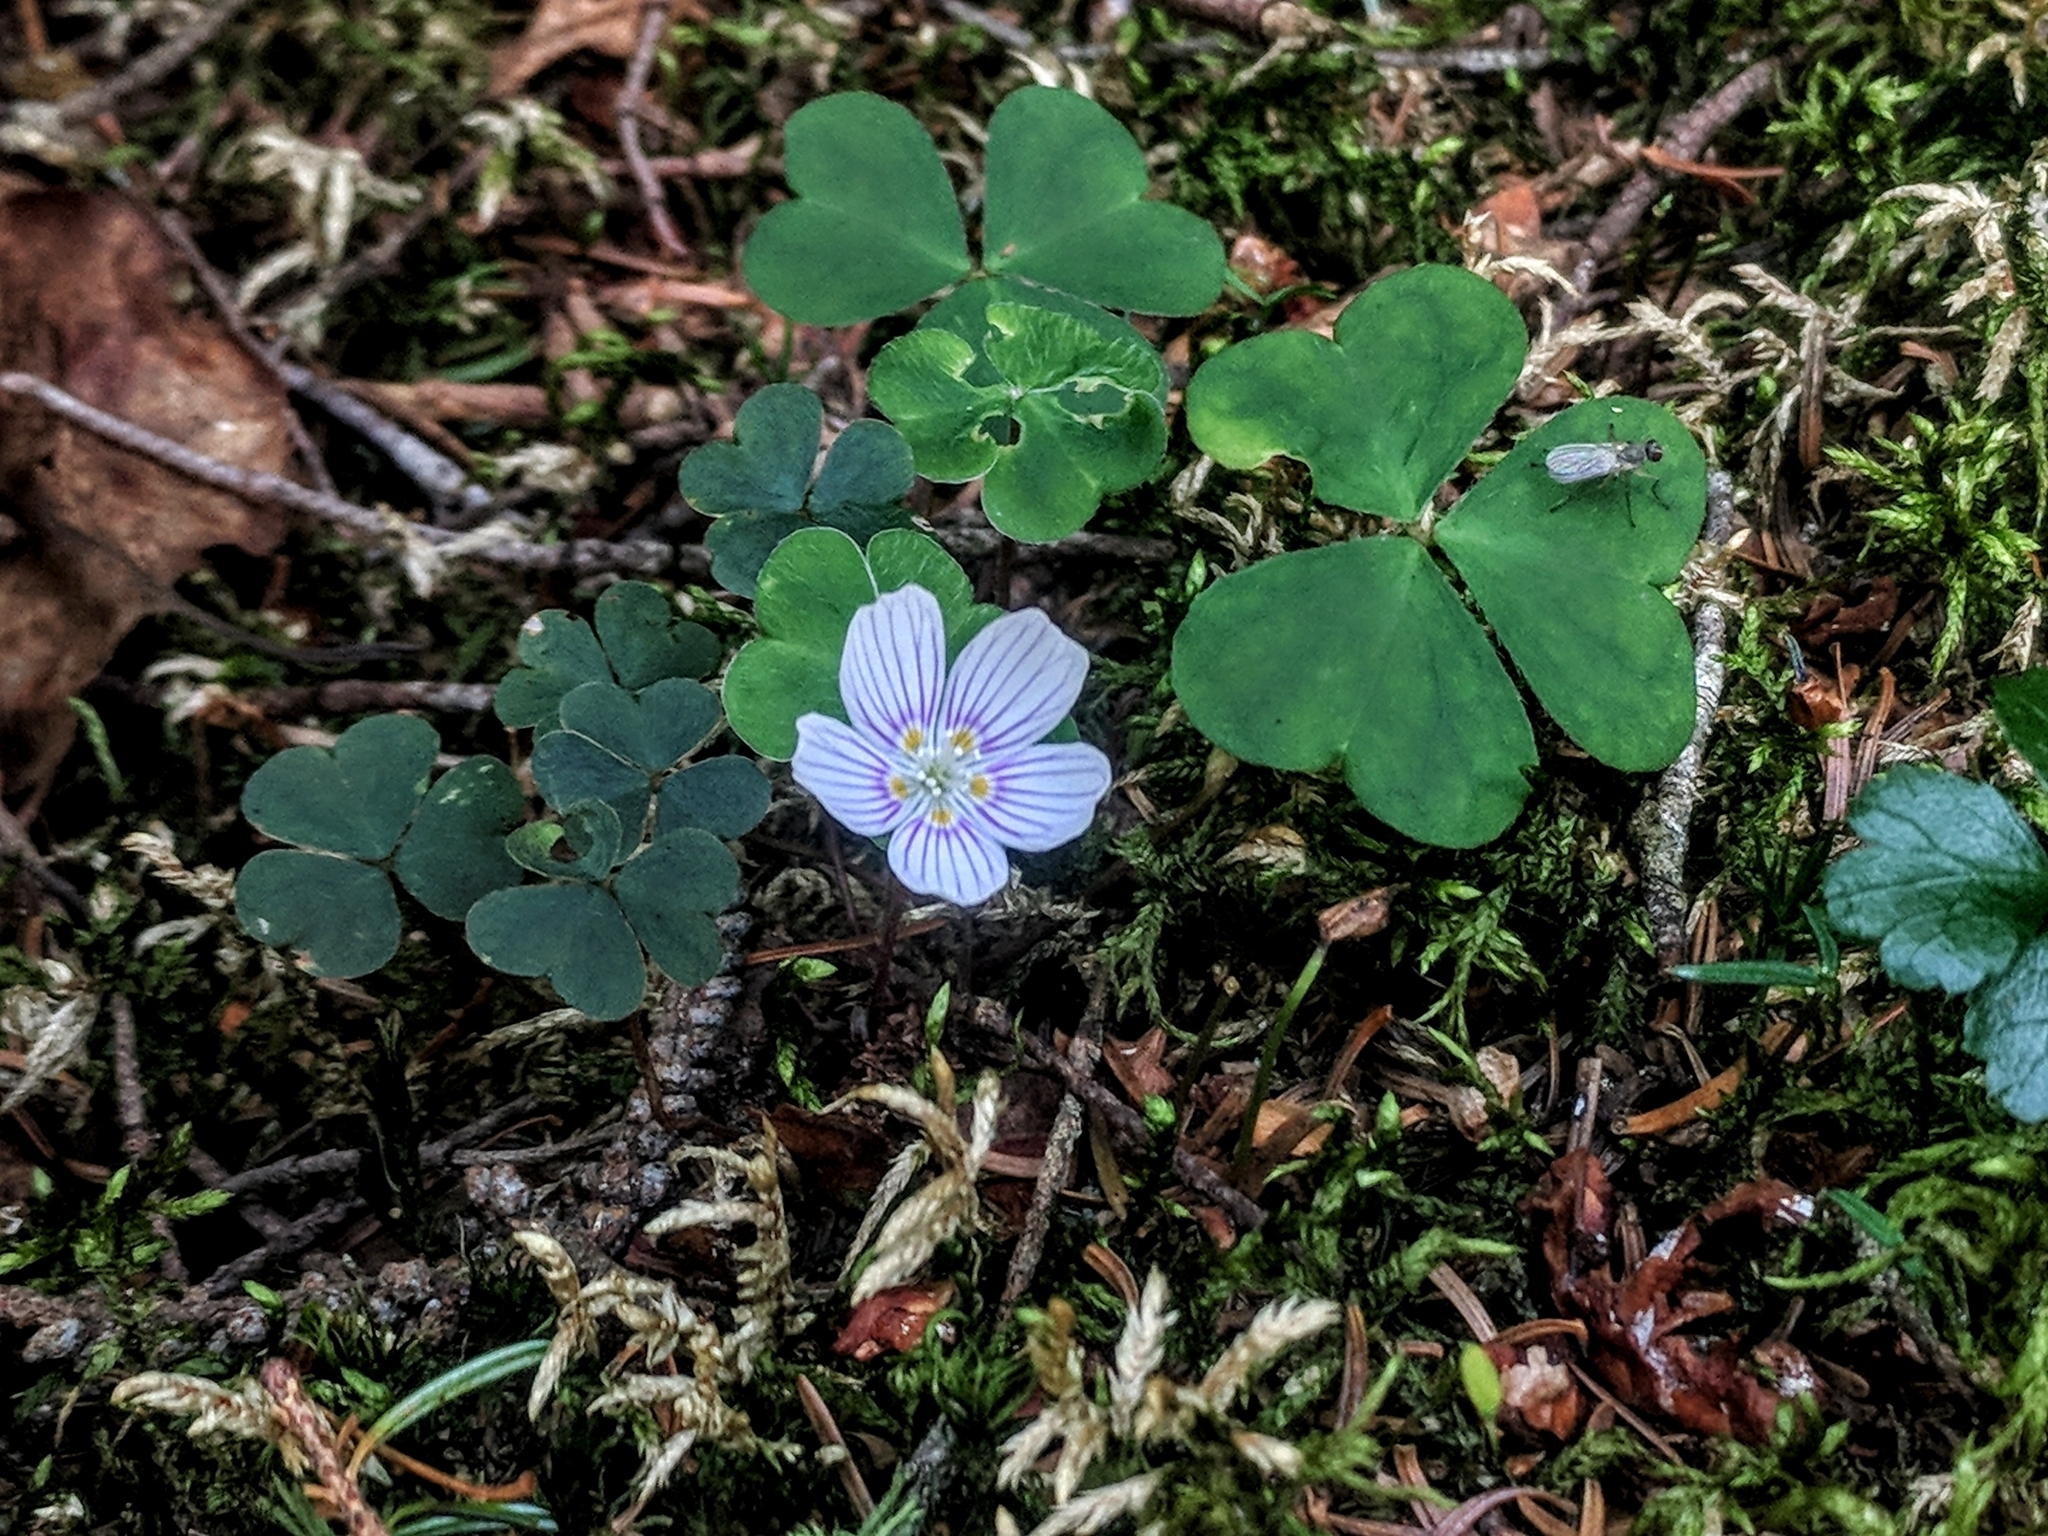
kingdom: Plantae
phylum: Tracheophyta
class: Magnoliopsida
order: Oxalidales
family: Oxalidaceae
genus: Oxalis
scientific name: Oxalis montana
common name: American wood-sorrel
